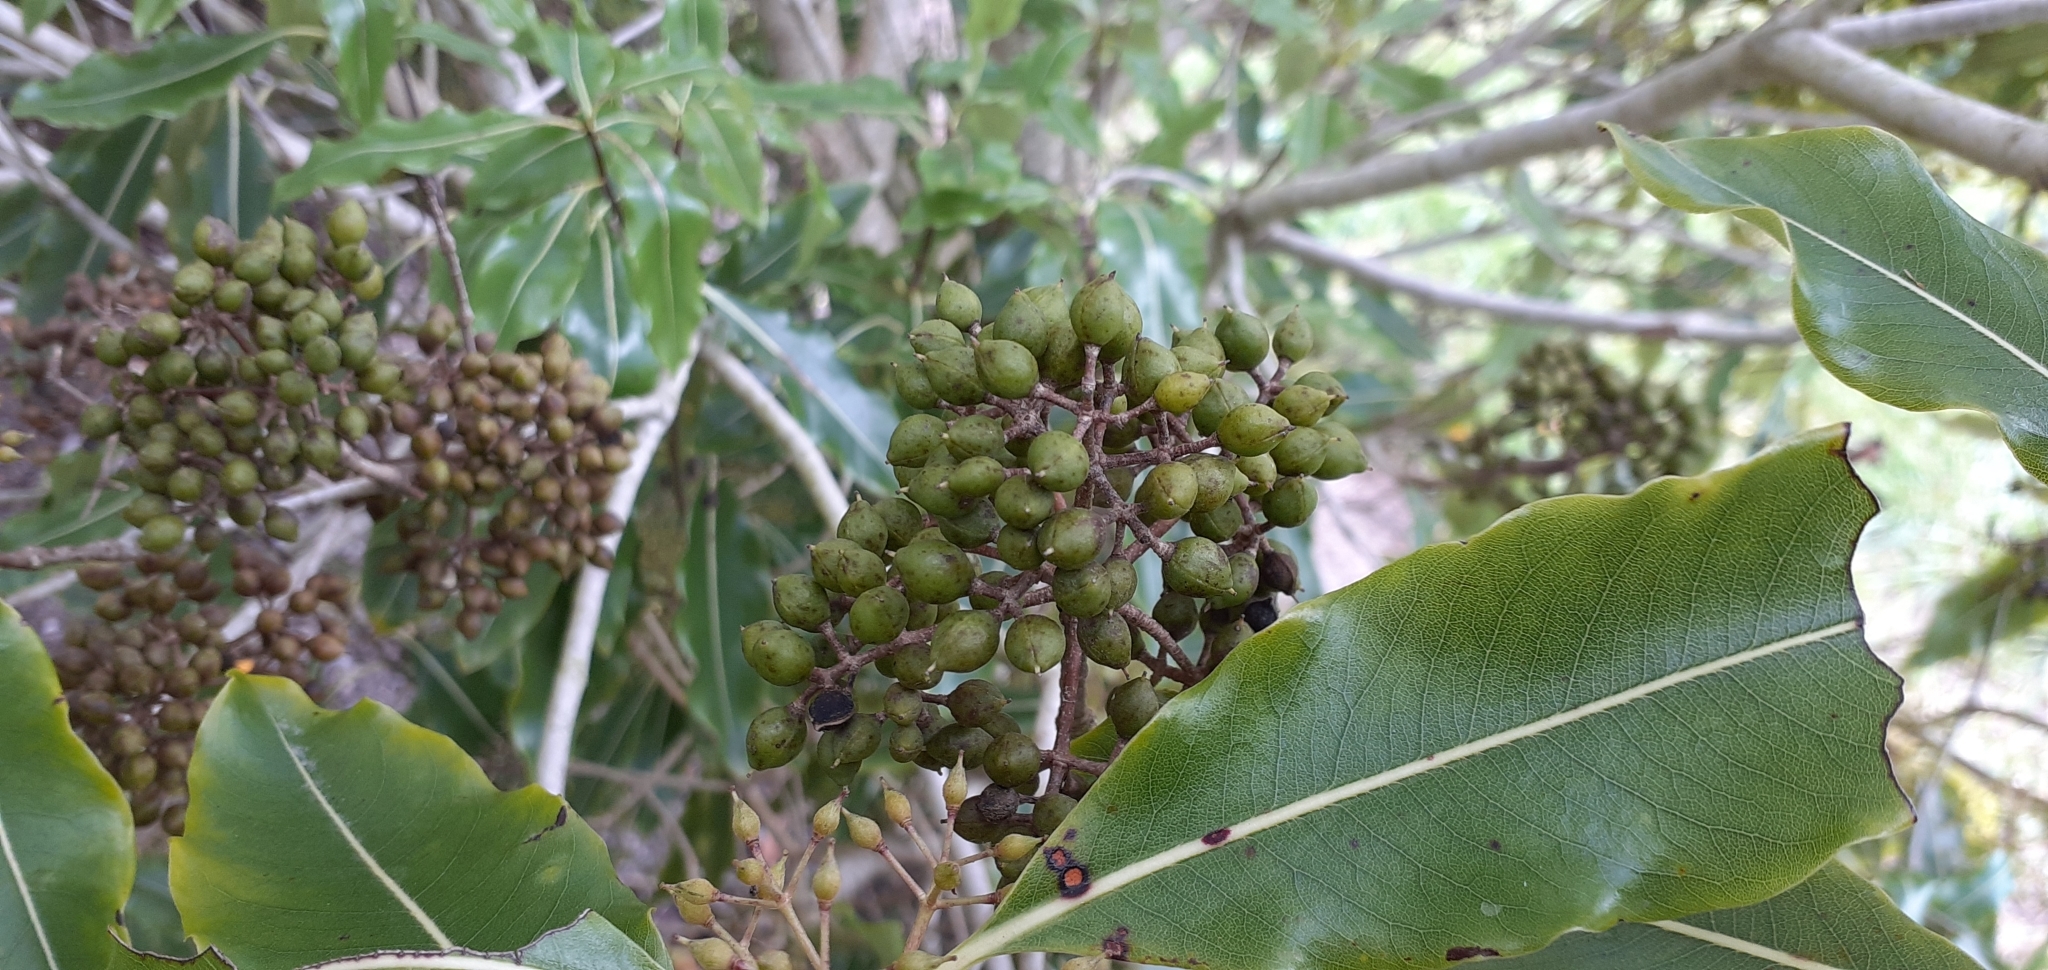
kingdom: Plantae
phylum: Tracheophyta
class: Magnoliopsida
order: Apiales
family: Pittosporaceae
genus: Pittosporum
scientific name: Pittosporum eugenioides
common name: Lemonwood
